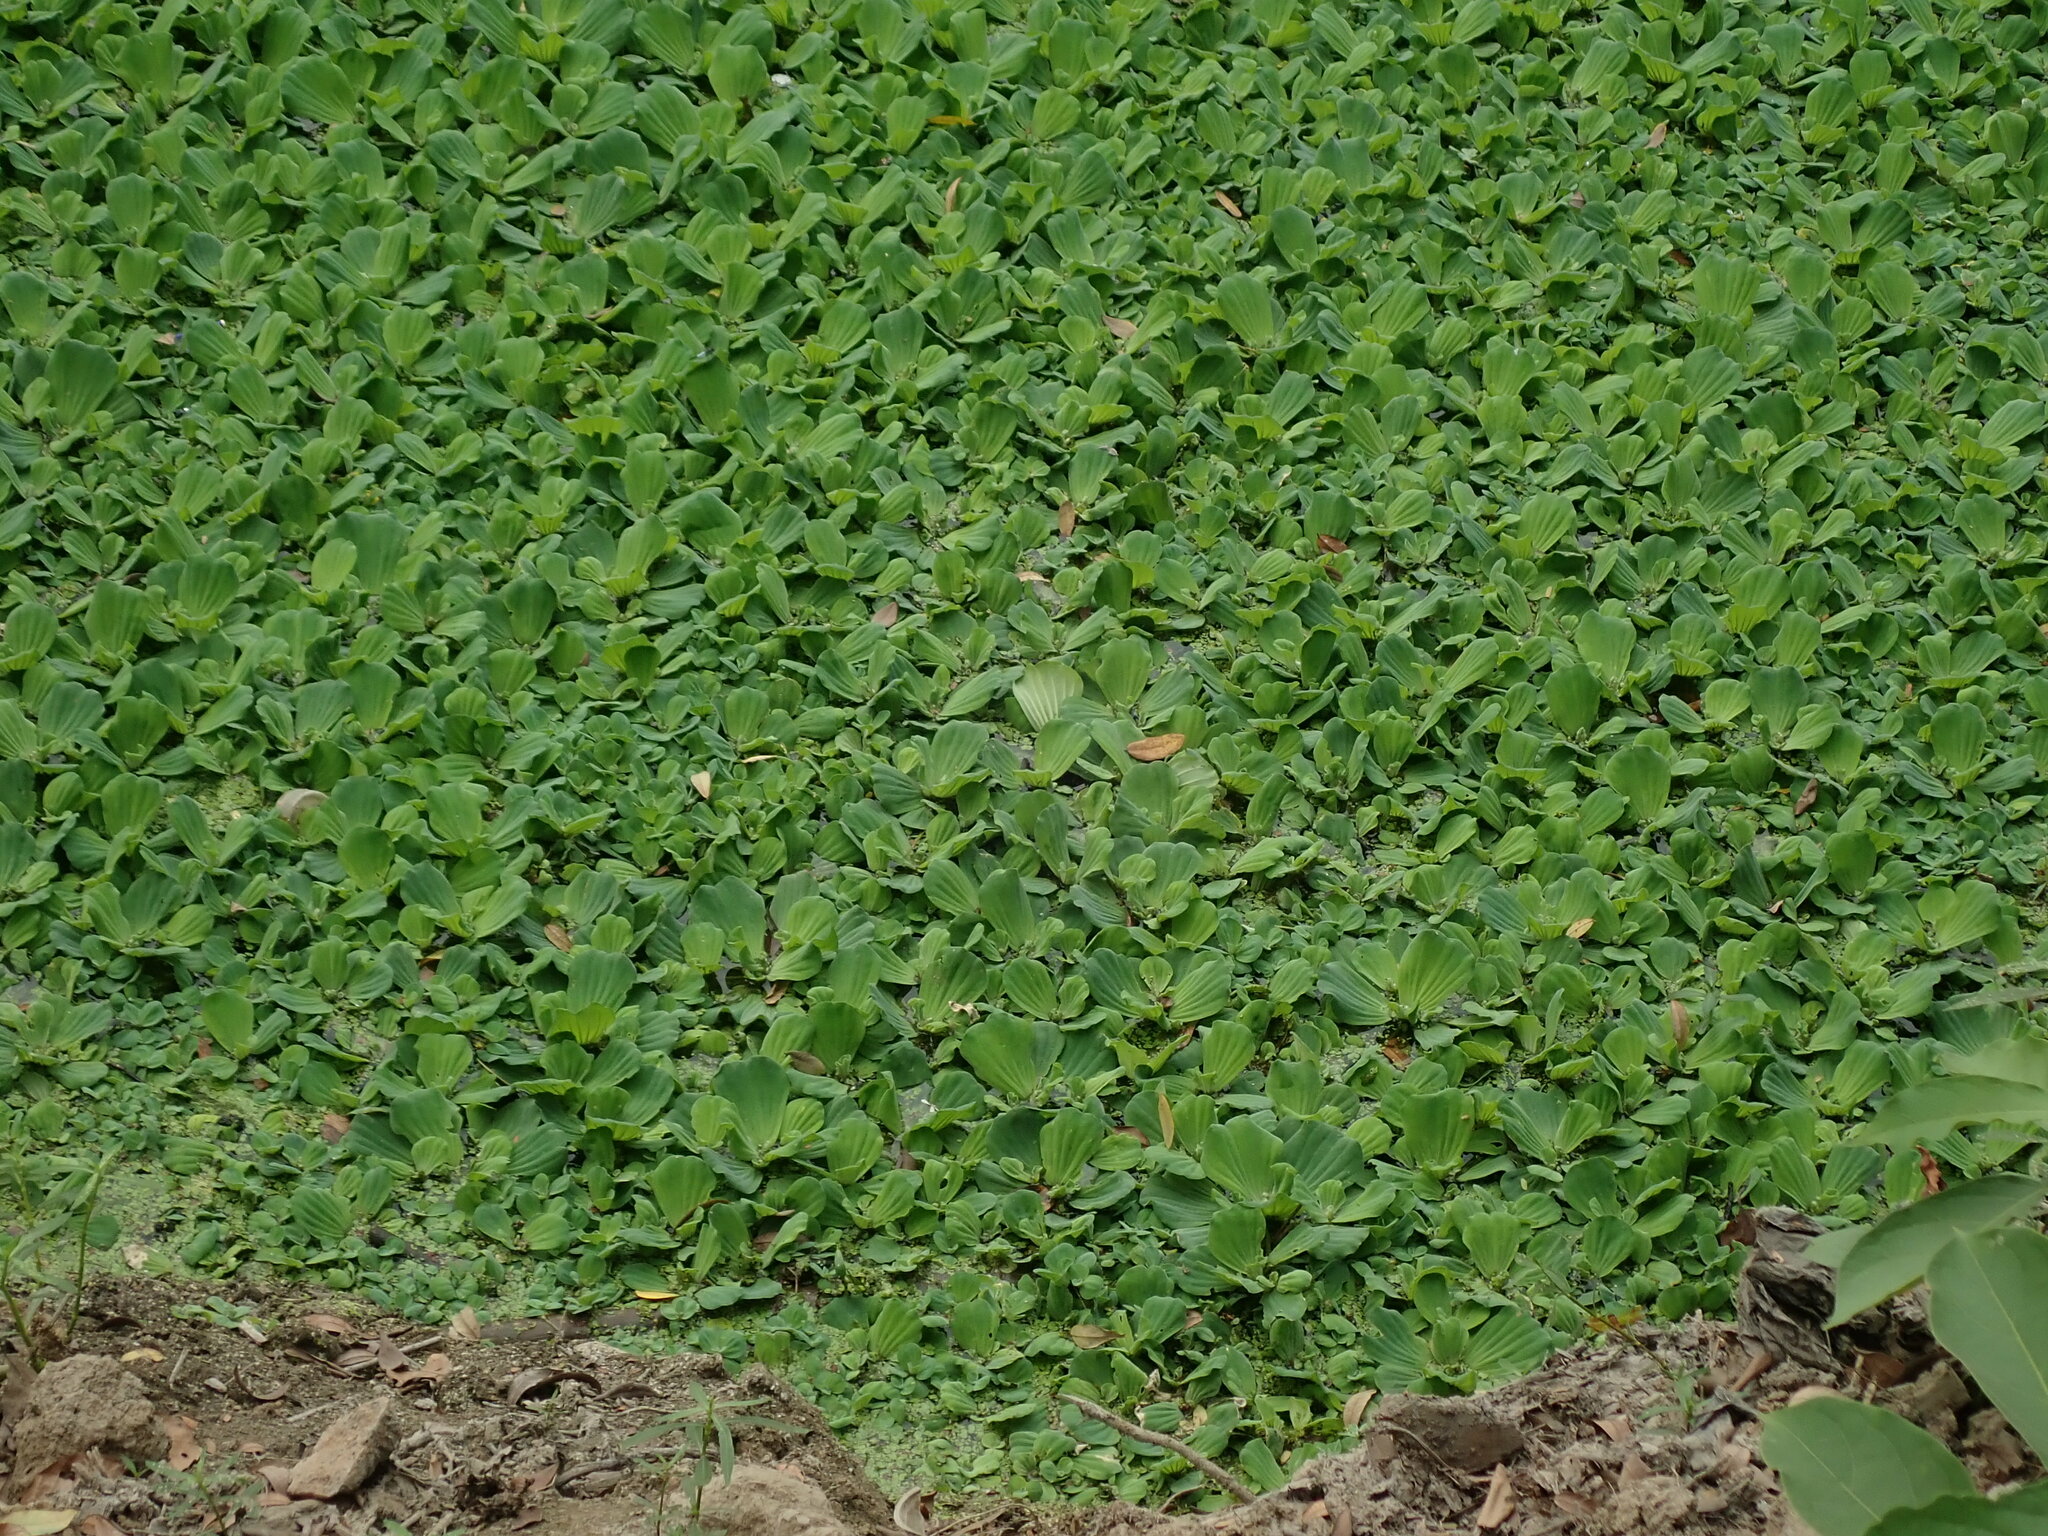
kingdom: Plantae
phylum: Tracheophyta
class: Liliopsida
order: Alismatales
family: Araceae
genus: Pistia
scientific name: Pistia stratiotes
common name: Water lettuce
